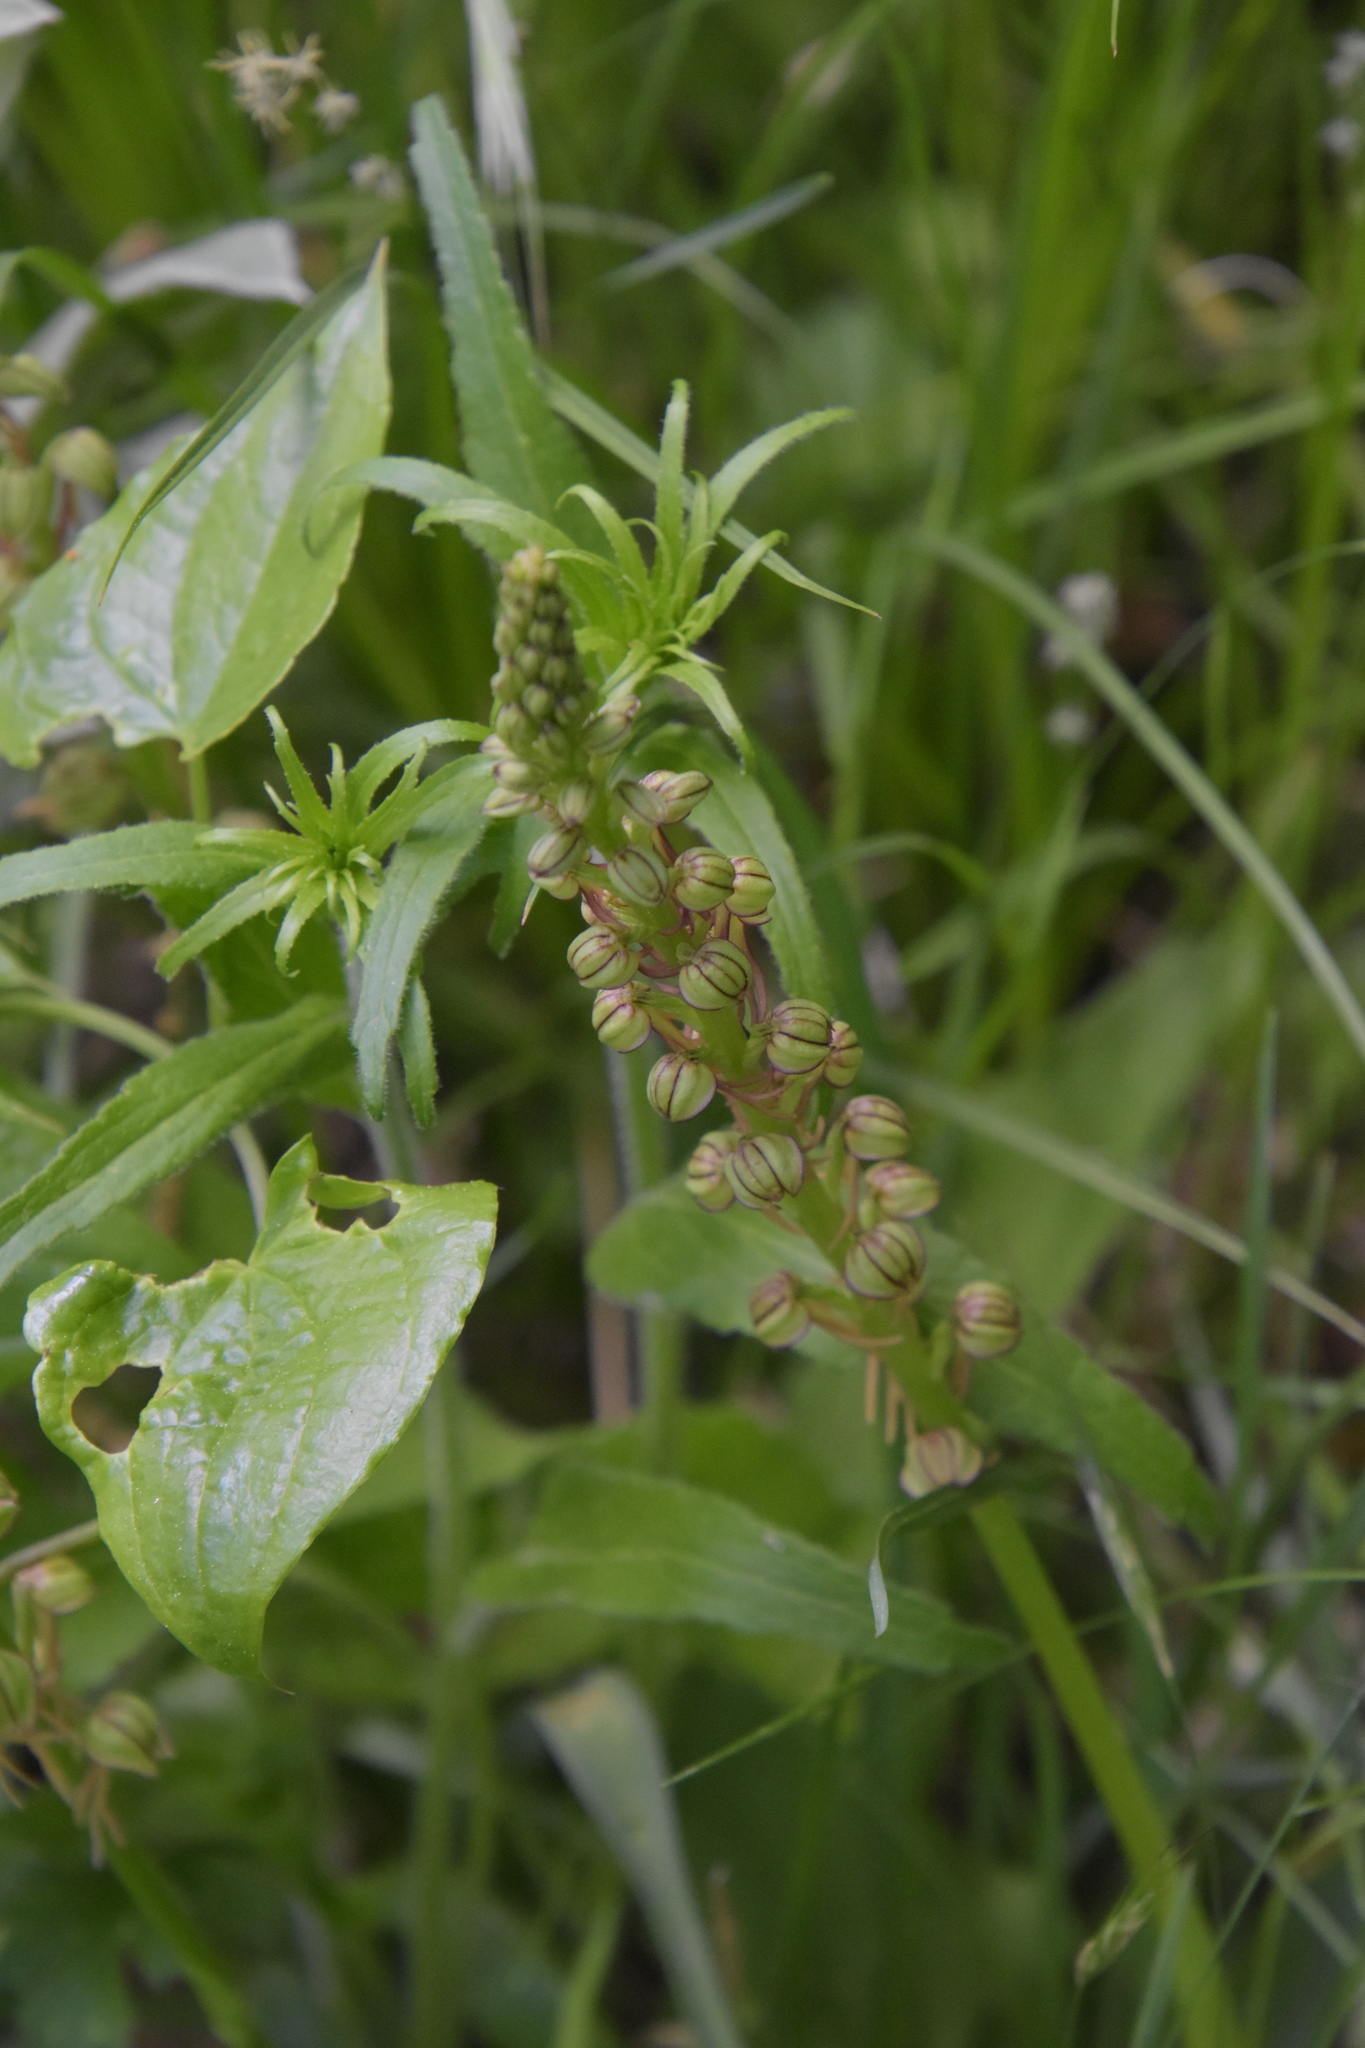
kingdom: Plantae
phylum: Tracheophyta
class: Liliopsida
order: Asparagales
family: Orchidaceae
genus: Orchis
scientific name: Orchis anthropophora
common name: Man orchid
